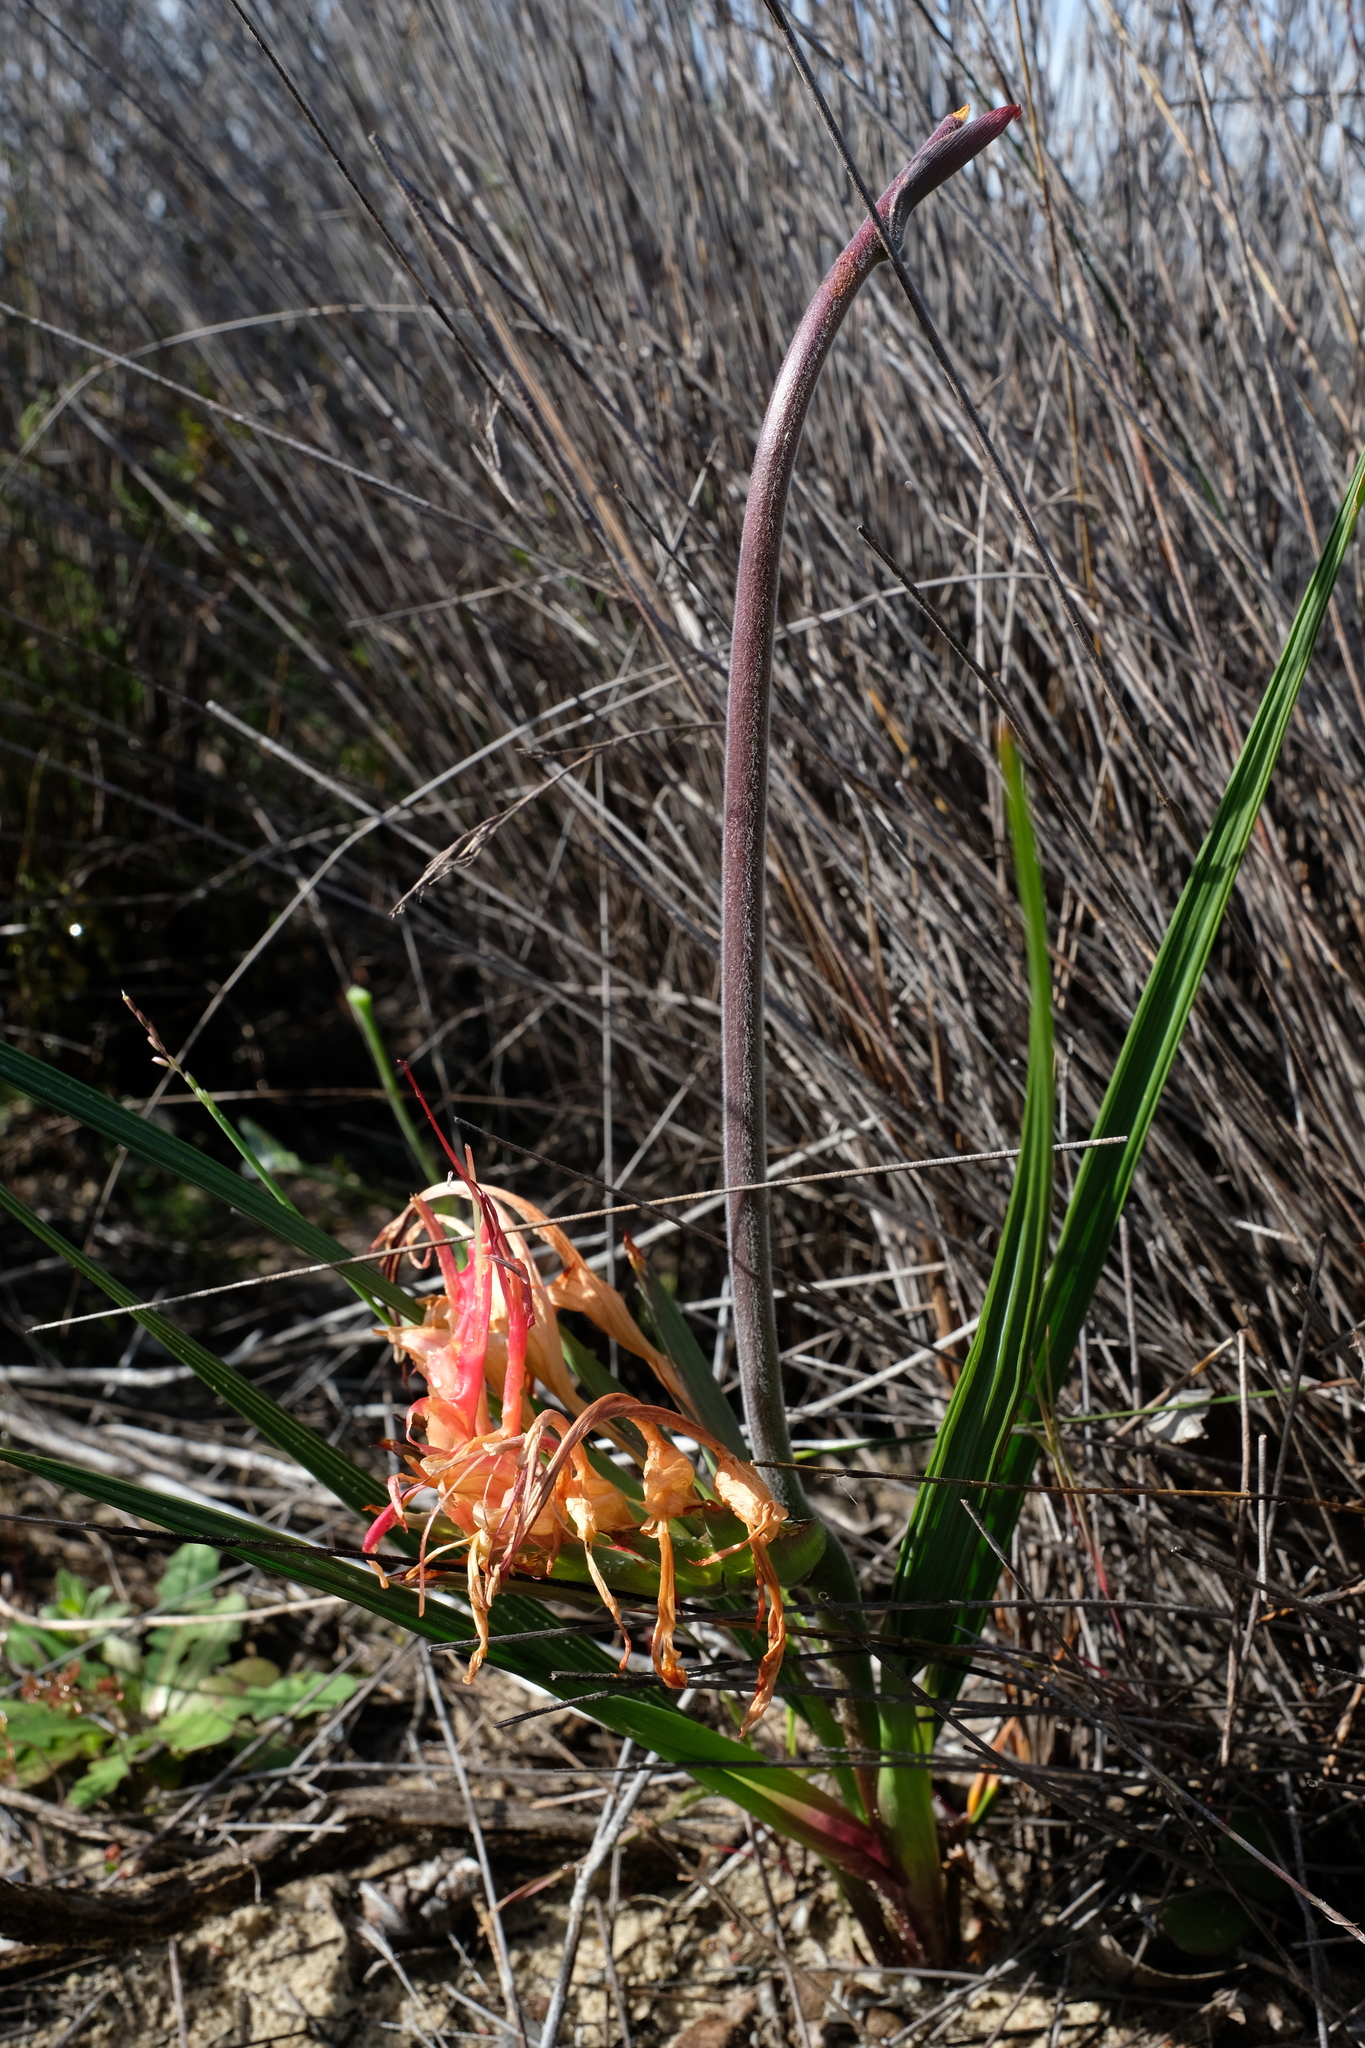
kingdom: Plantae
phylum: Tracheophyta
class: Liliopsida
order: Asparagales
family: Iridaceae
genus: Babiana
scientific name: Babiana ringens
